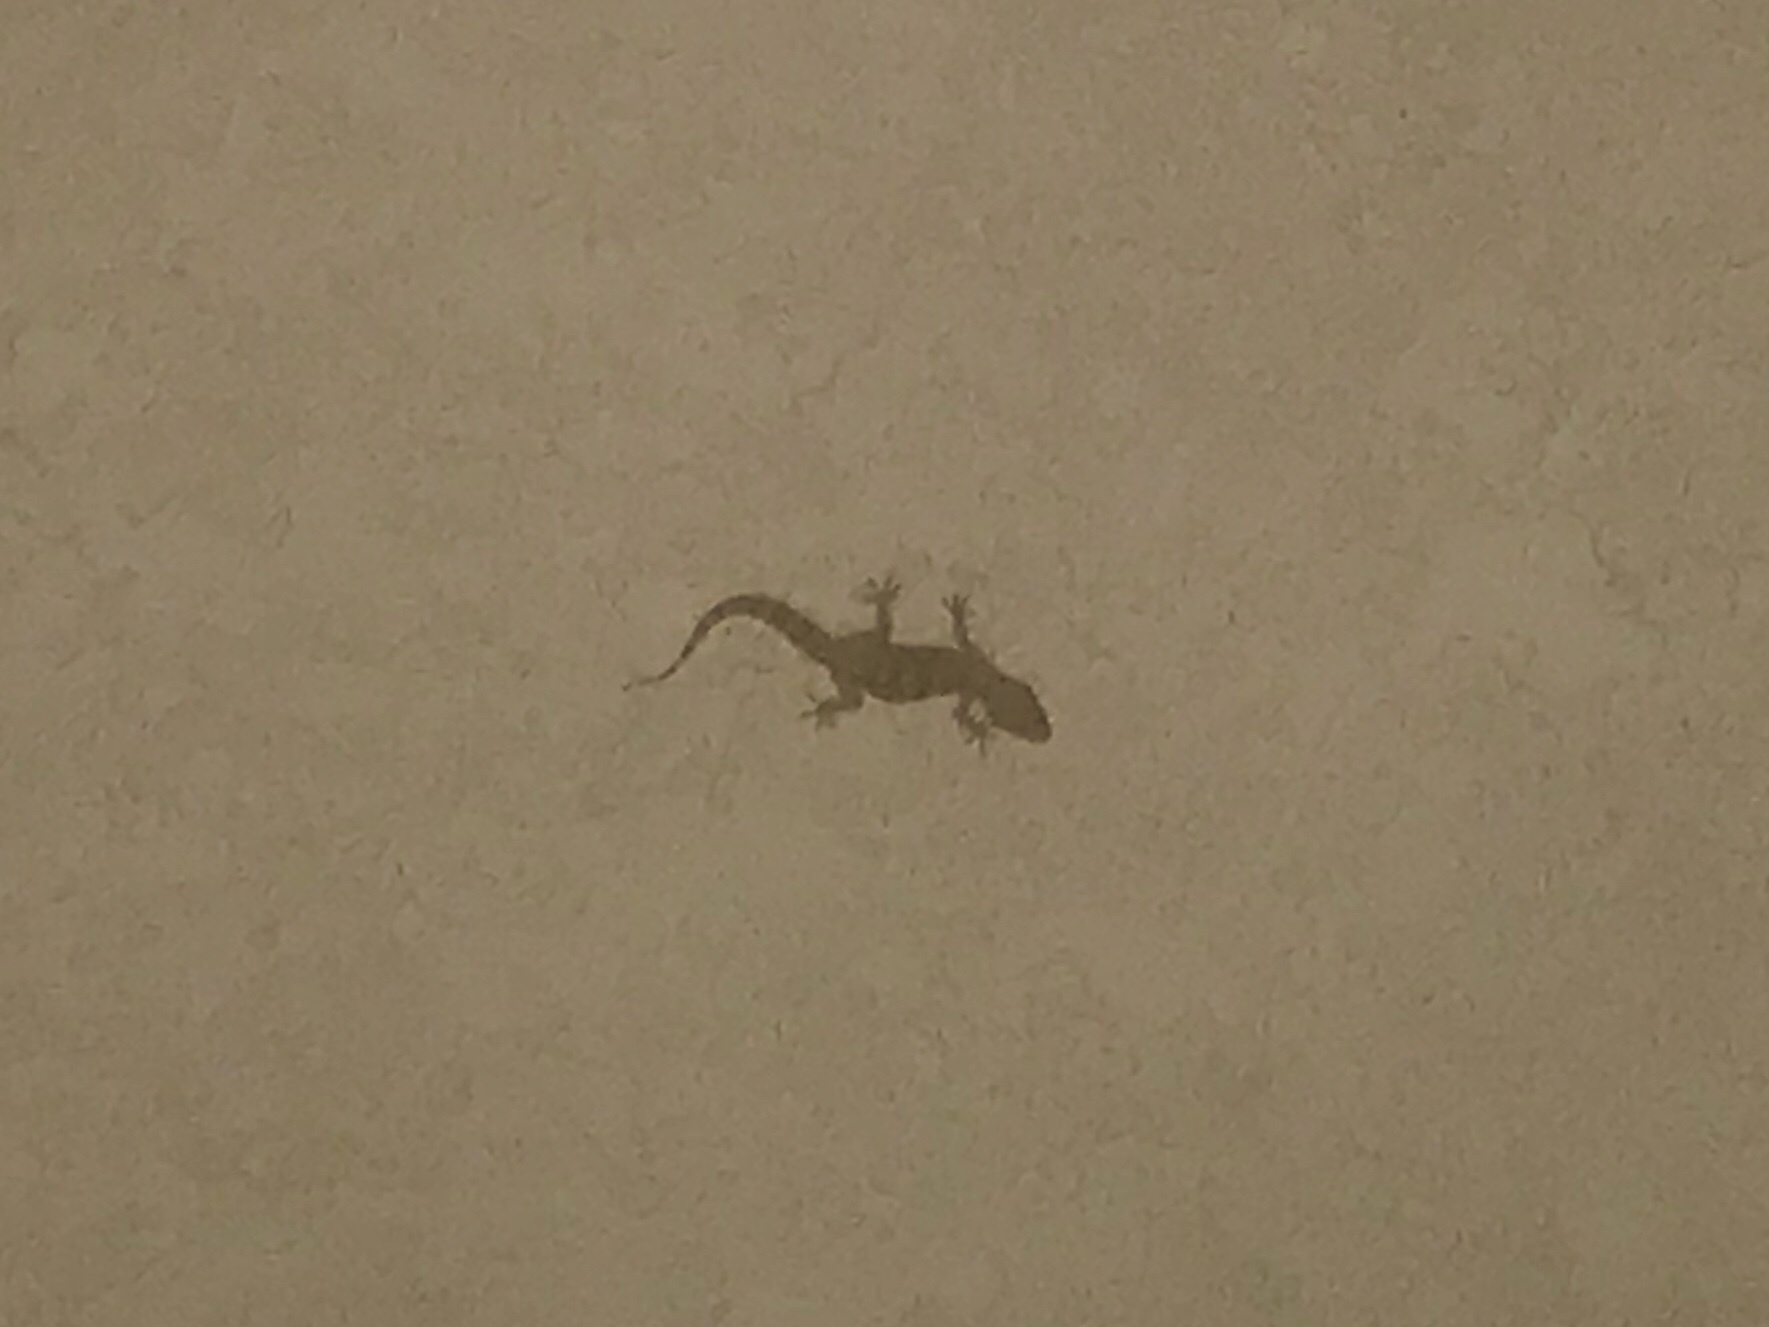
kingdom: Animalia
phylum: Chordata
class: Squamata
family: Gekkonidae
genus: Hemidactylus
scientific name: Hemidactylus turcicus
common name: Turkish gecko
